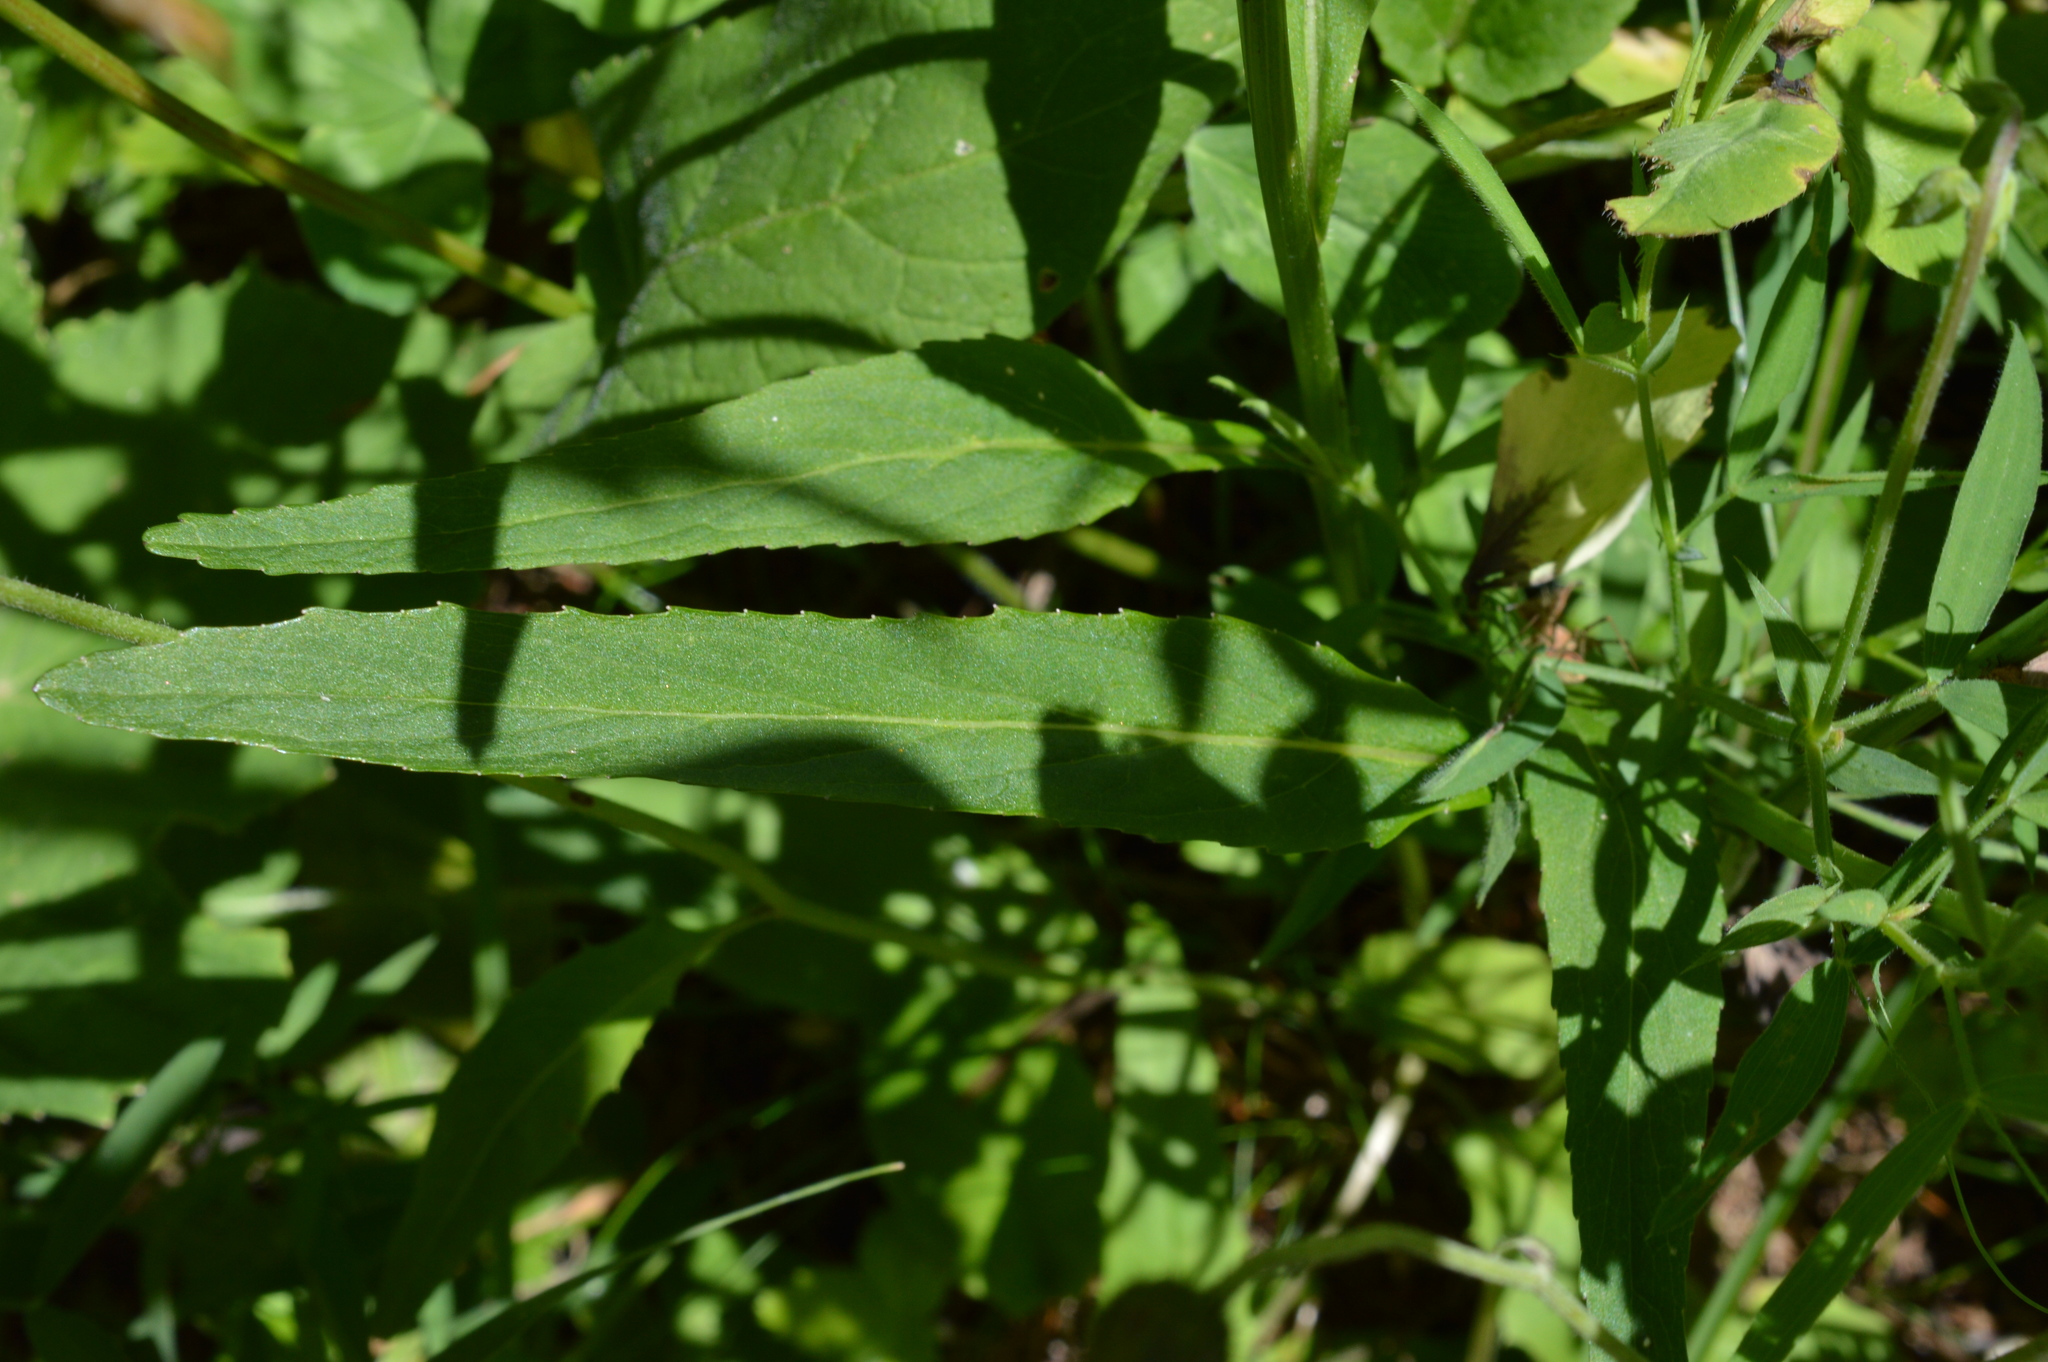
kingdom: Plantae
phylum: Tracheophyta
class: Magnoliopsida
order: Asterales
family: Campanulaceae
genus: Phyteuma
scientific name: Phyteuma betonicifolium
